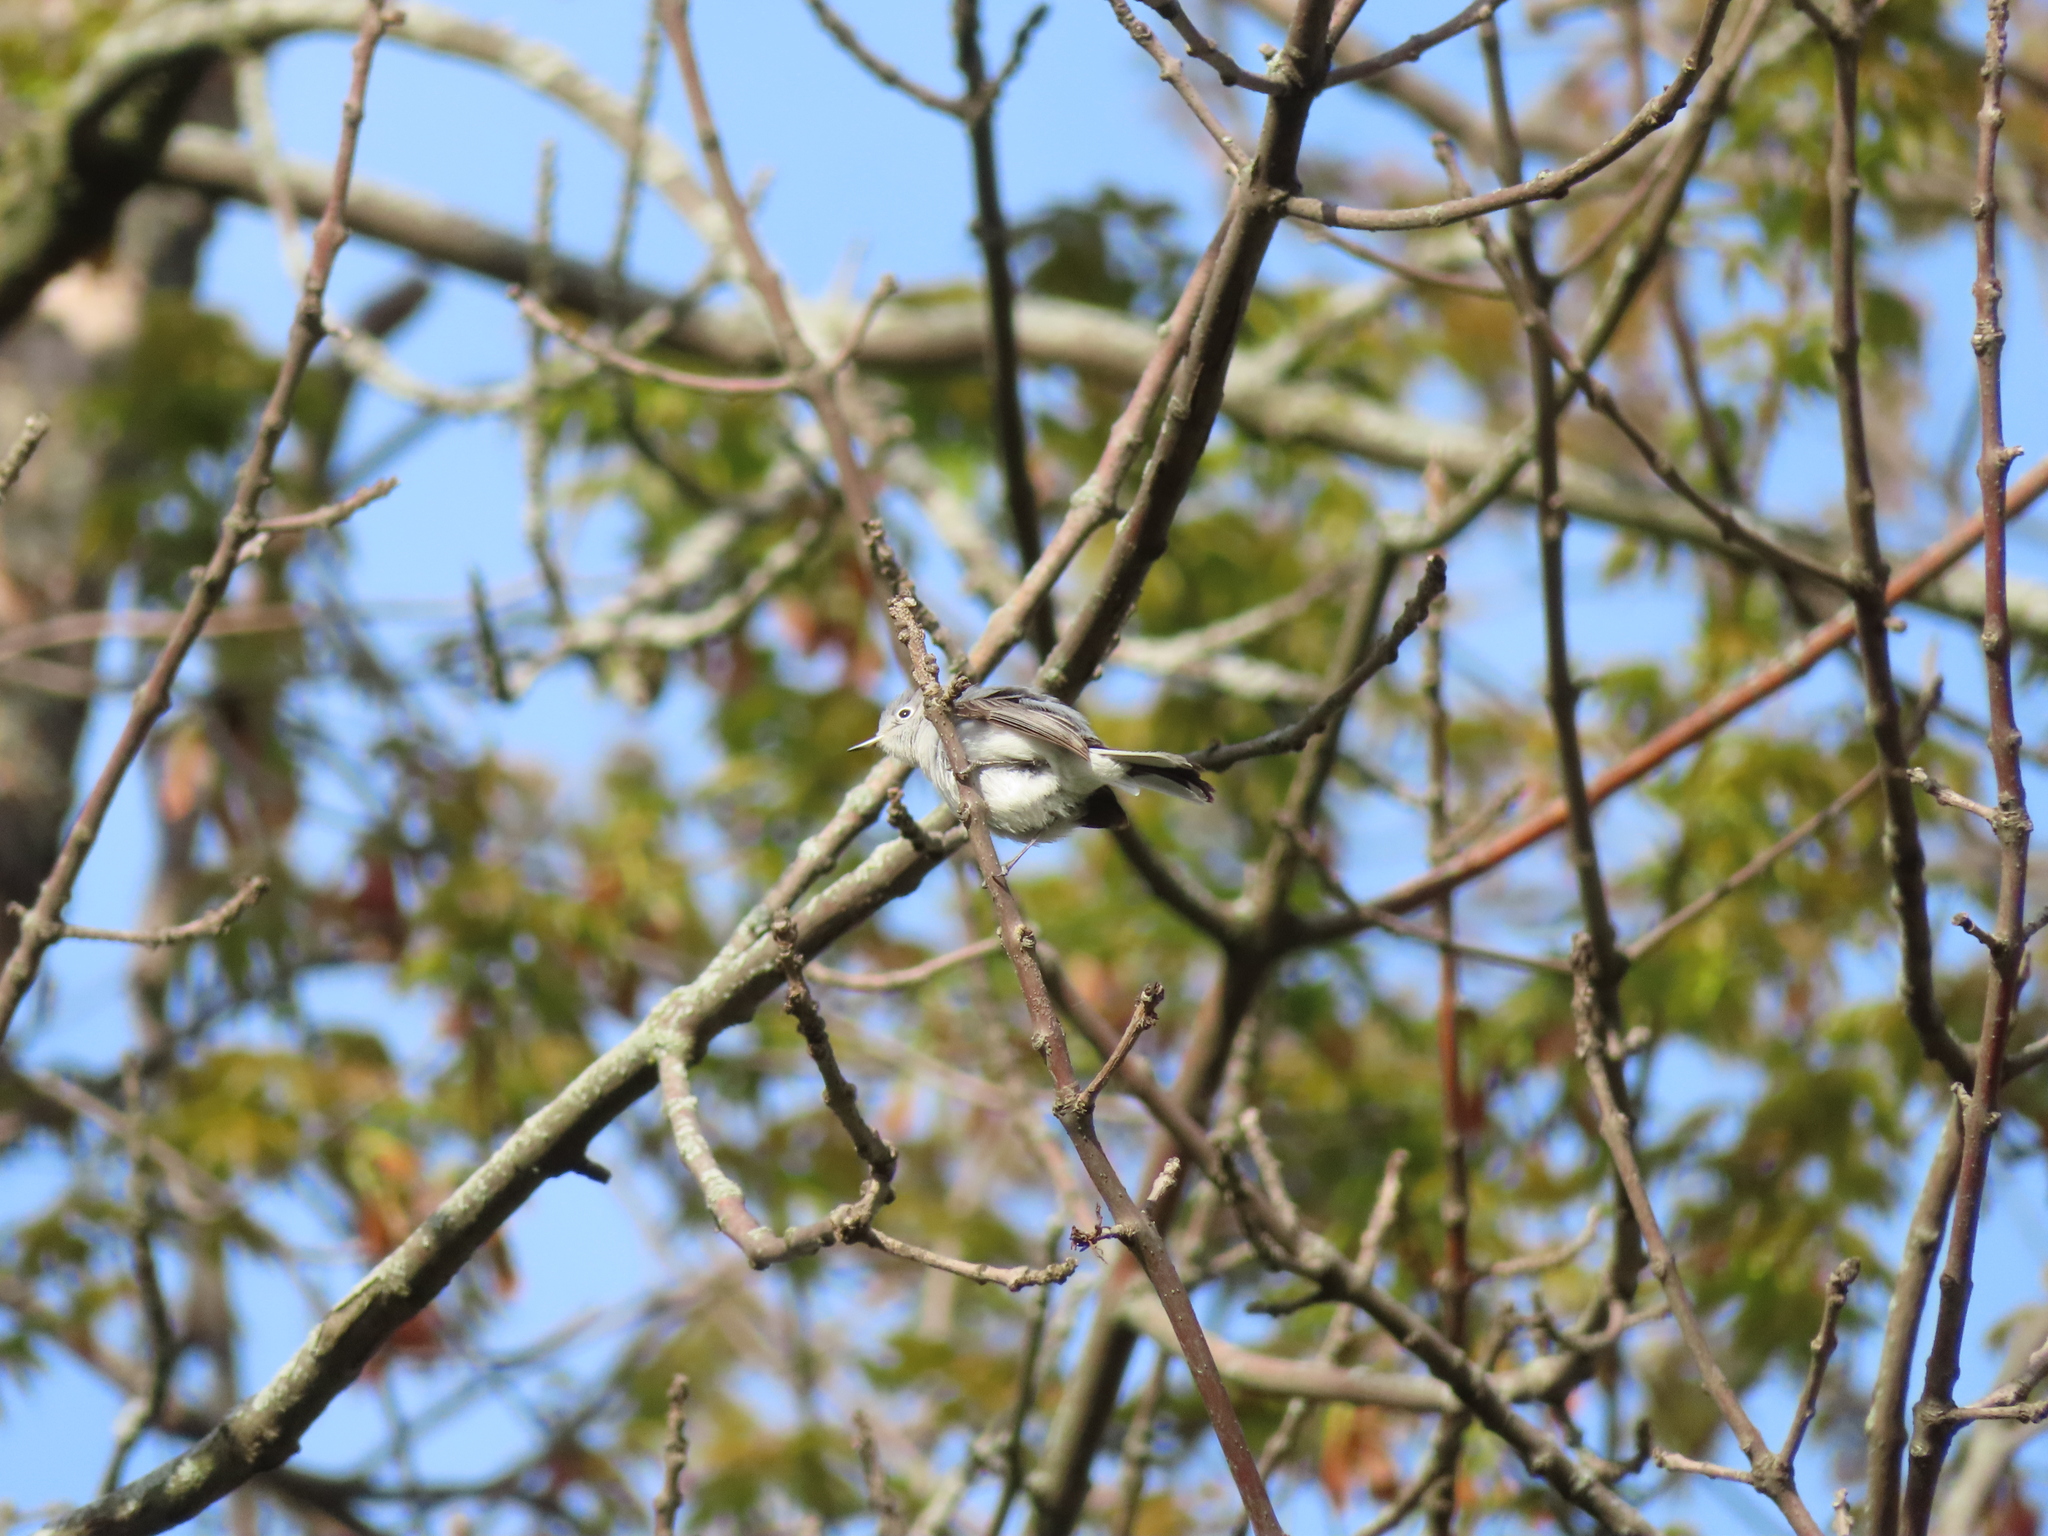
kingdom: Animalia
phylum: Chordata
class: Aves
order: Passeriformes
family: Polioptilidae
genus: Polioptila
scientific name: Polioptila caerulea
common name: Blue-gray gnatcatcher
